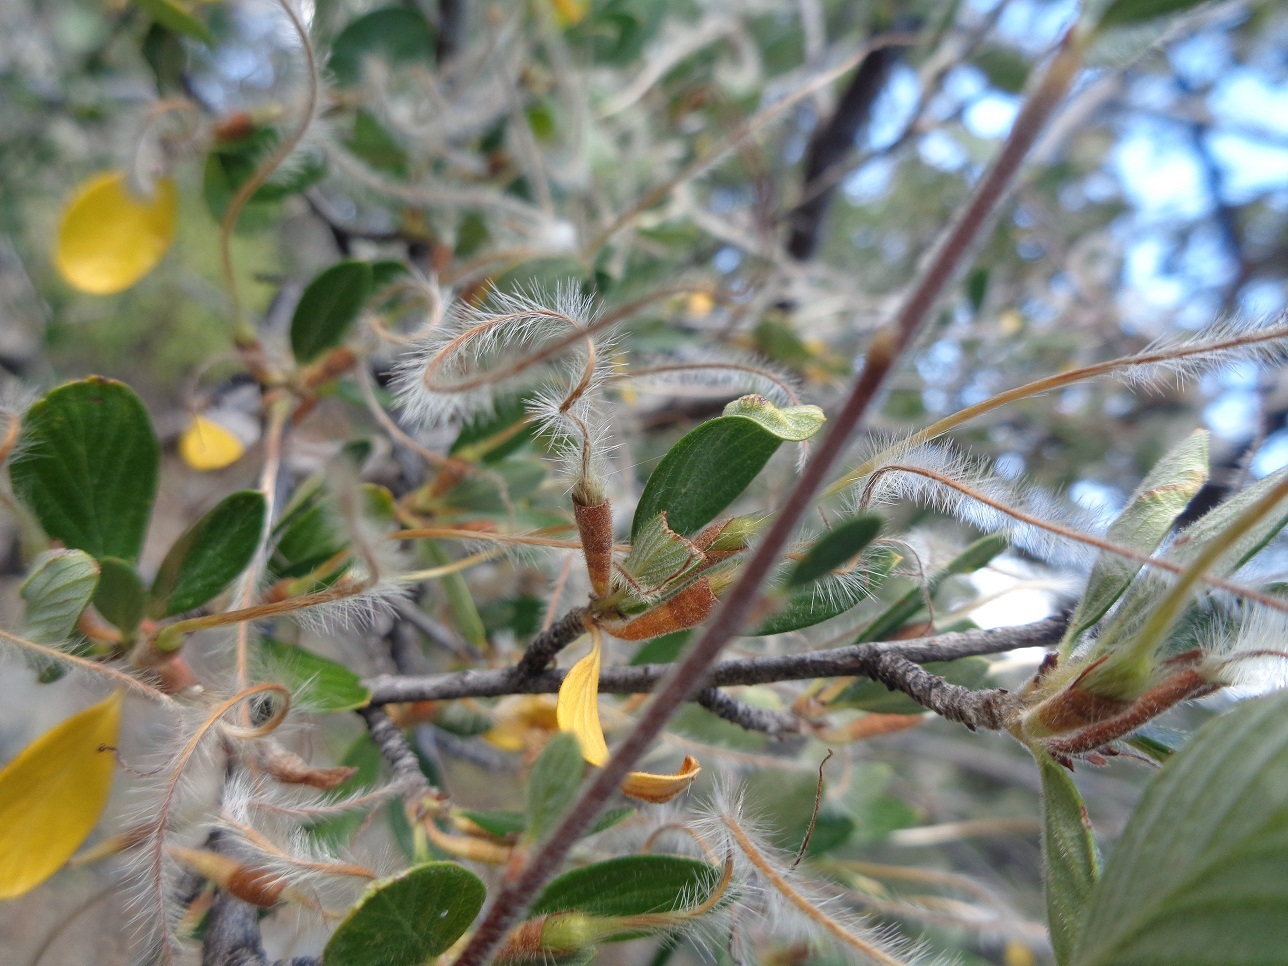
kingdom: Plantae
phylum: Tracheophyta
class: Magnoliopsida
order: Rosales
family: Rosaceae
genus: Cercocarpus
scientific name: Cercocarpus betuloides
